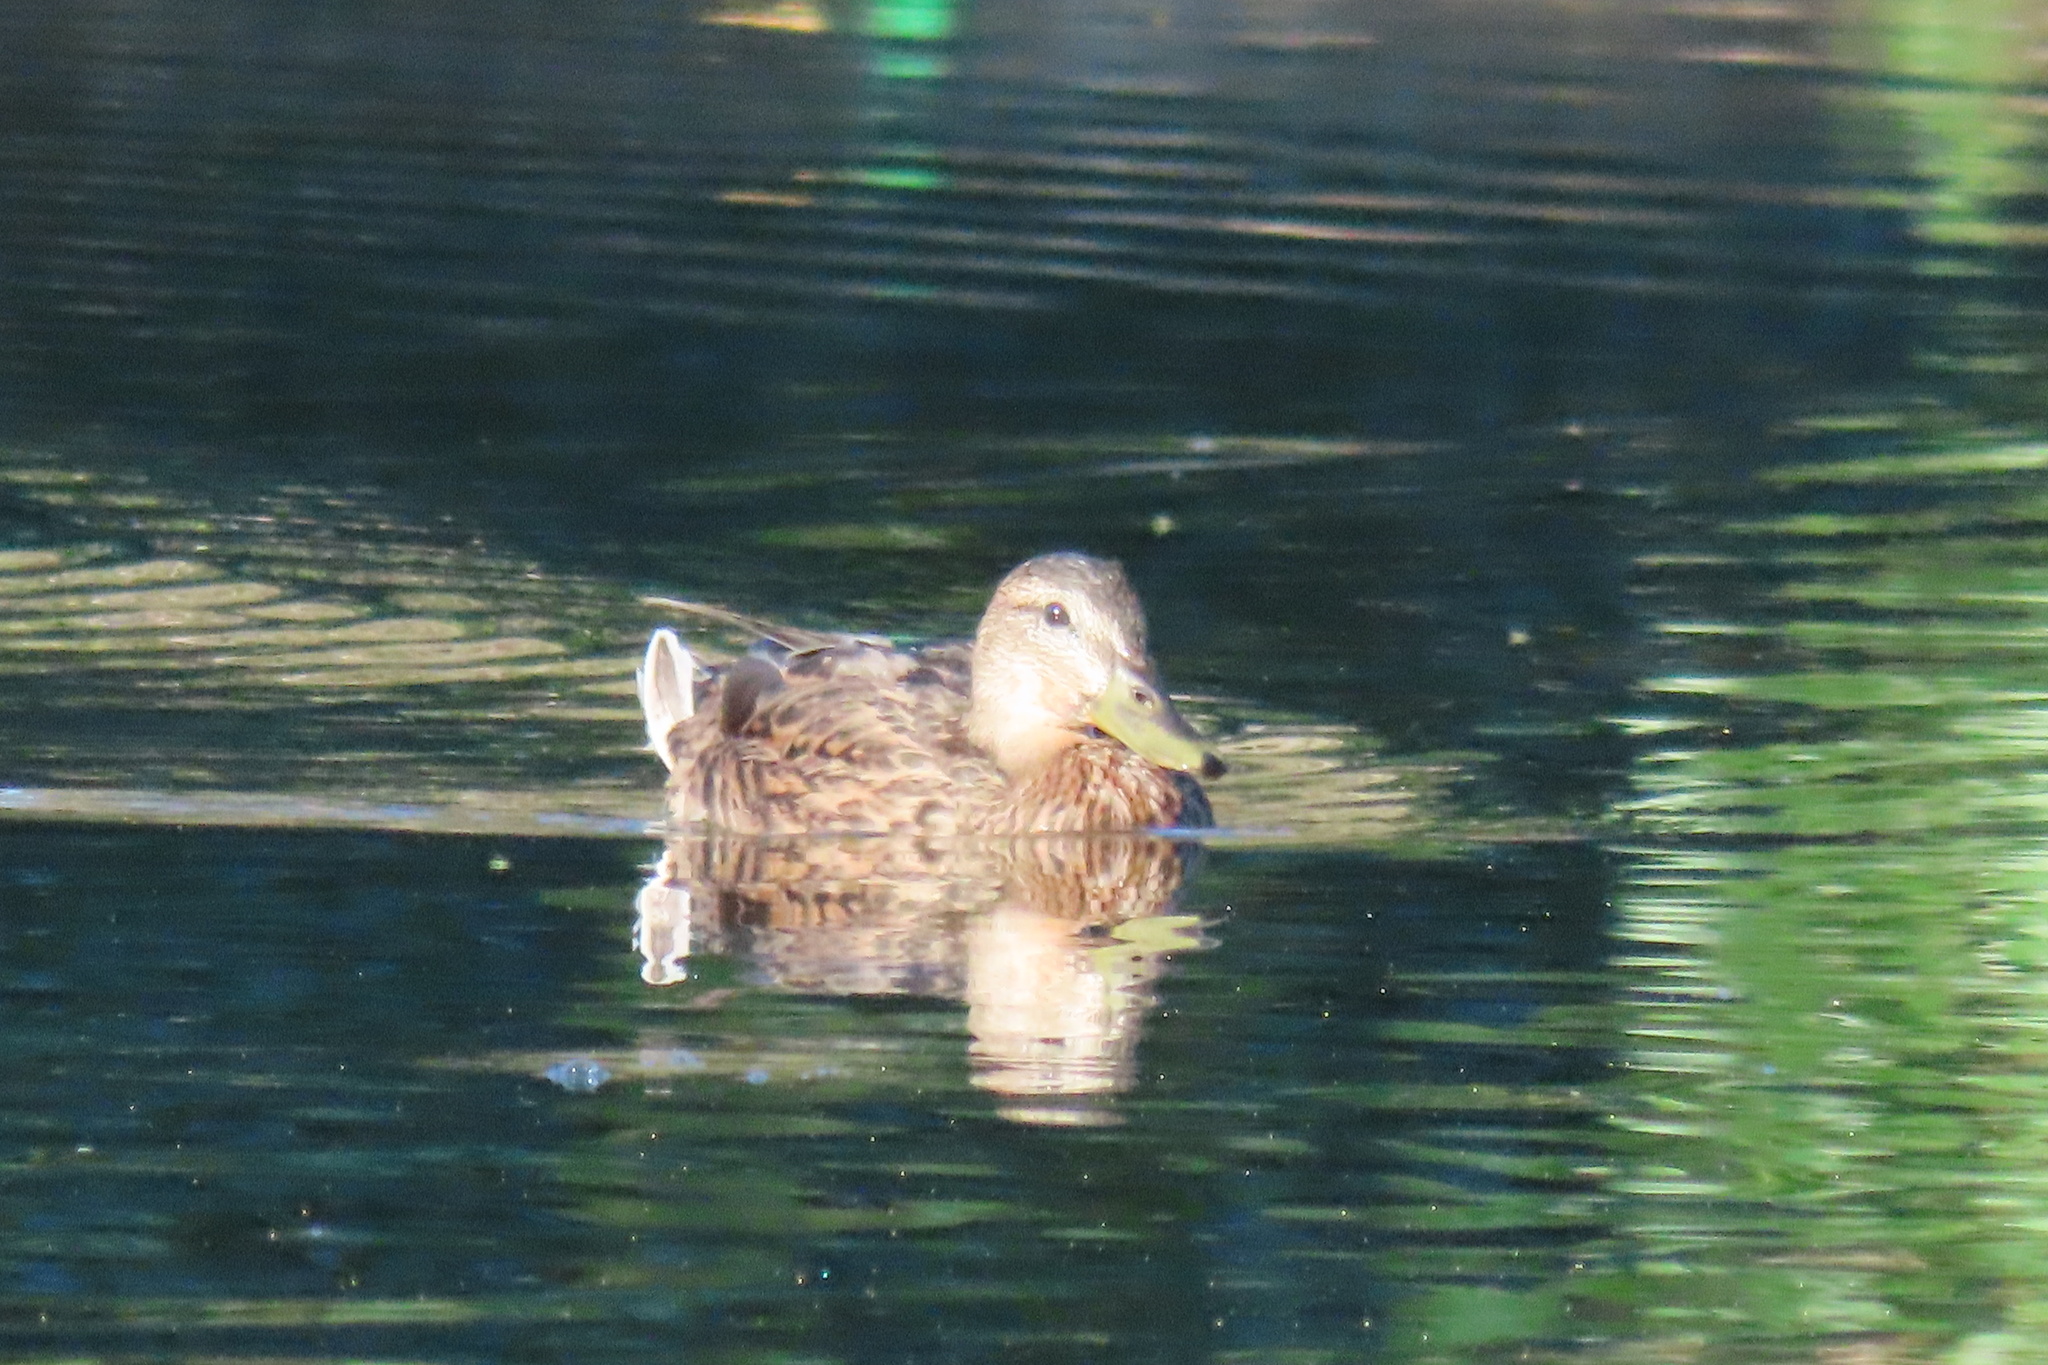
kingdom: Animalia
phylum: Chordata
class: Aves
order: Anseriformes
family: Anatidae
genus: Anas
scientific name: Anas platyrhynchos
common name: Mallard
